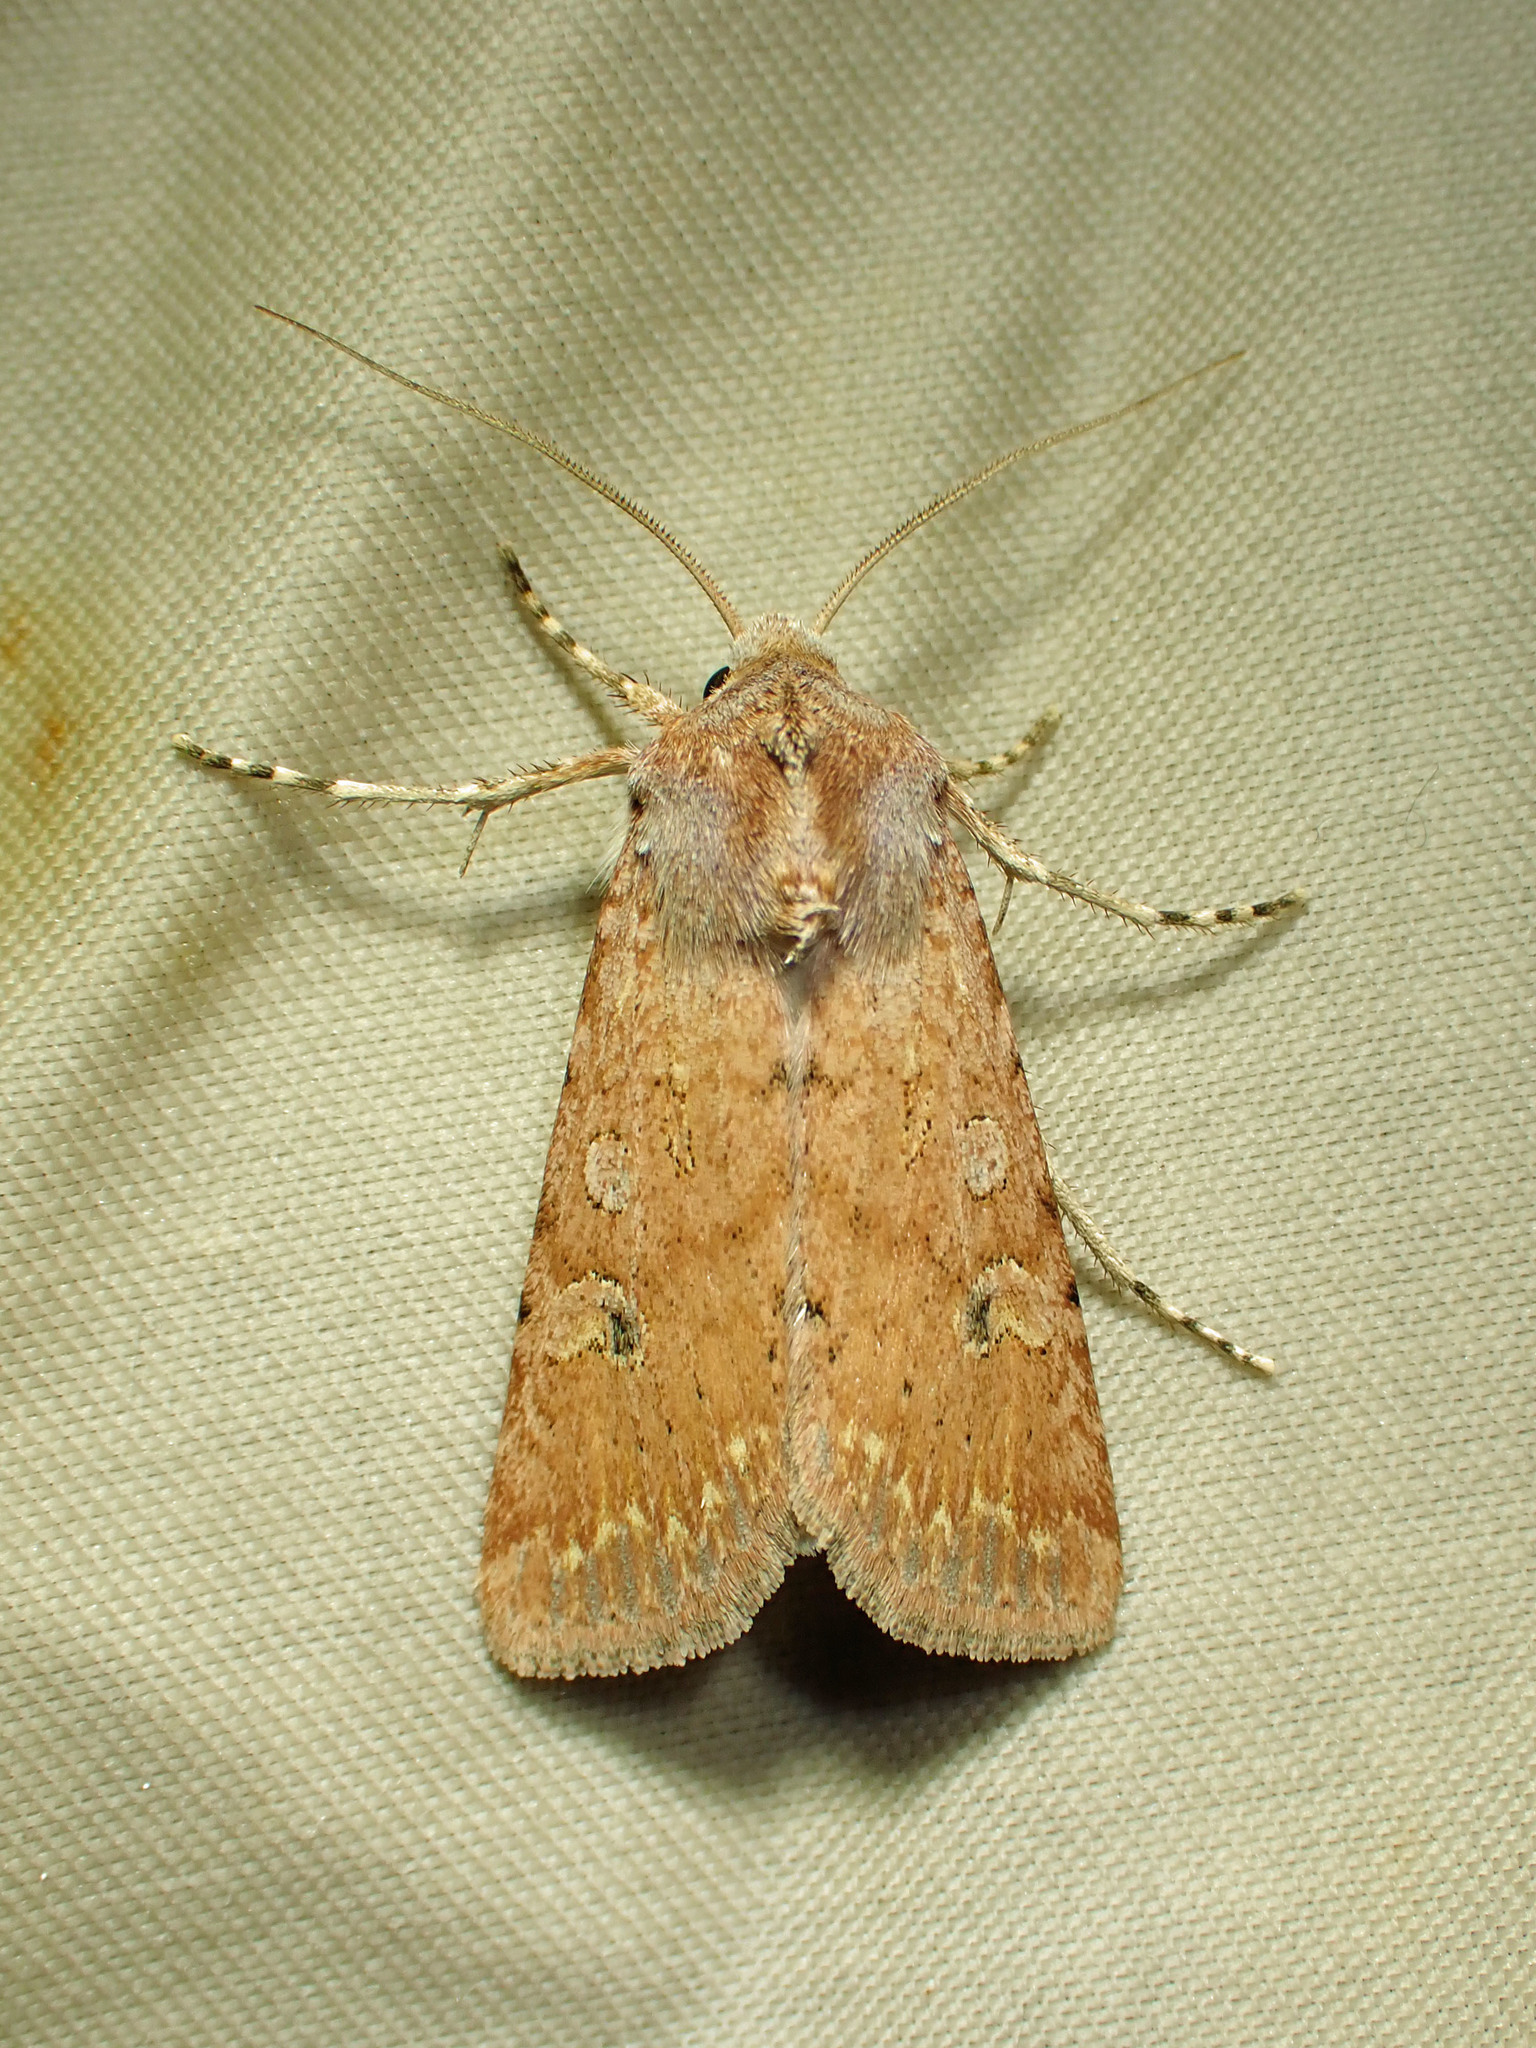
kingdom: Animalia
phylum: Arthropoda
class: Insecta
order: Lepidoptera
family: Noctuidae
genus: Euxoa
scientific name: Euxoa scandens
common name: White cutworm
